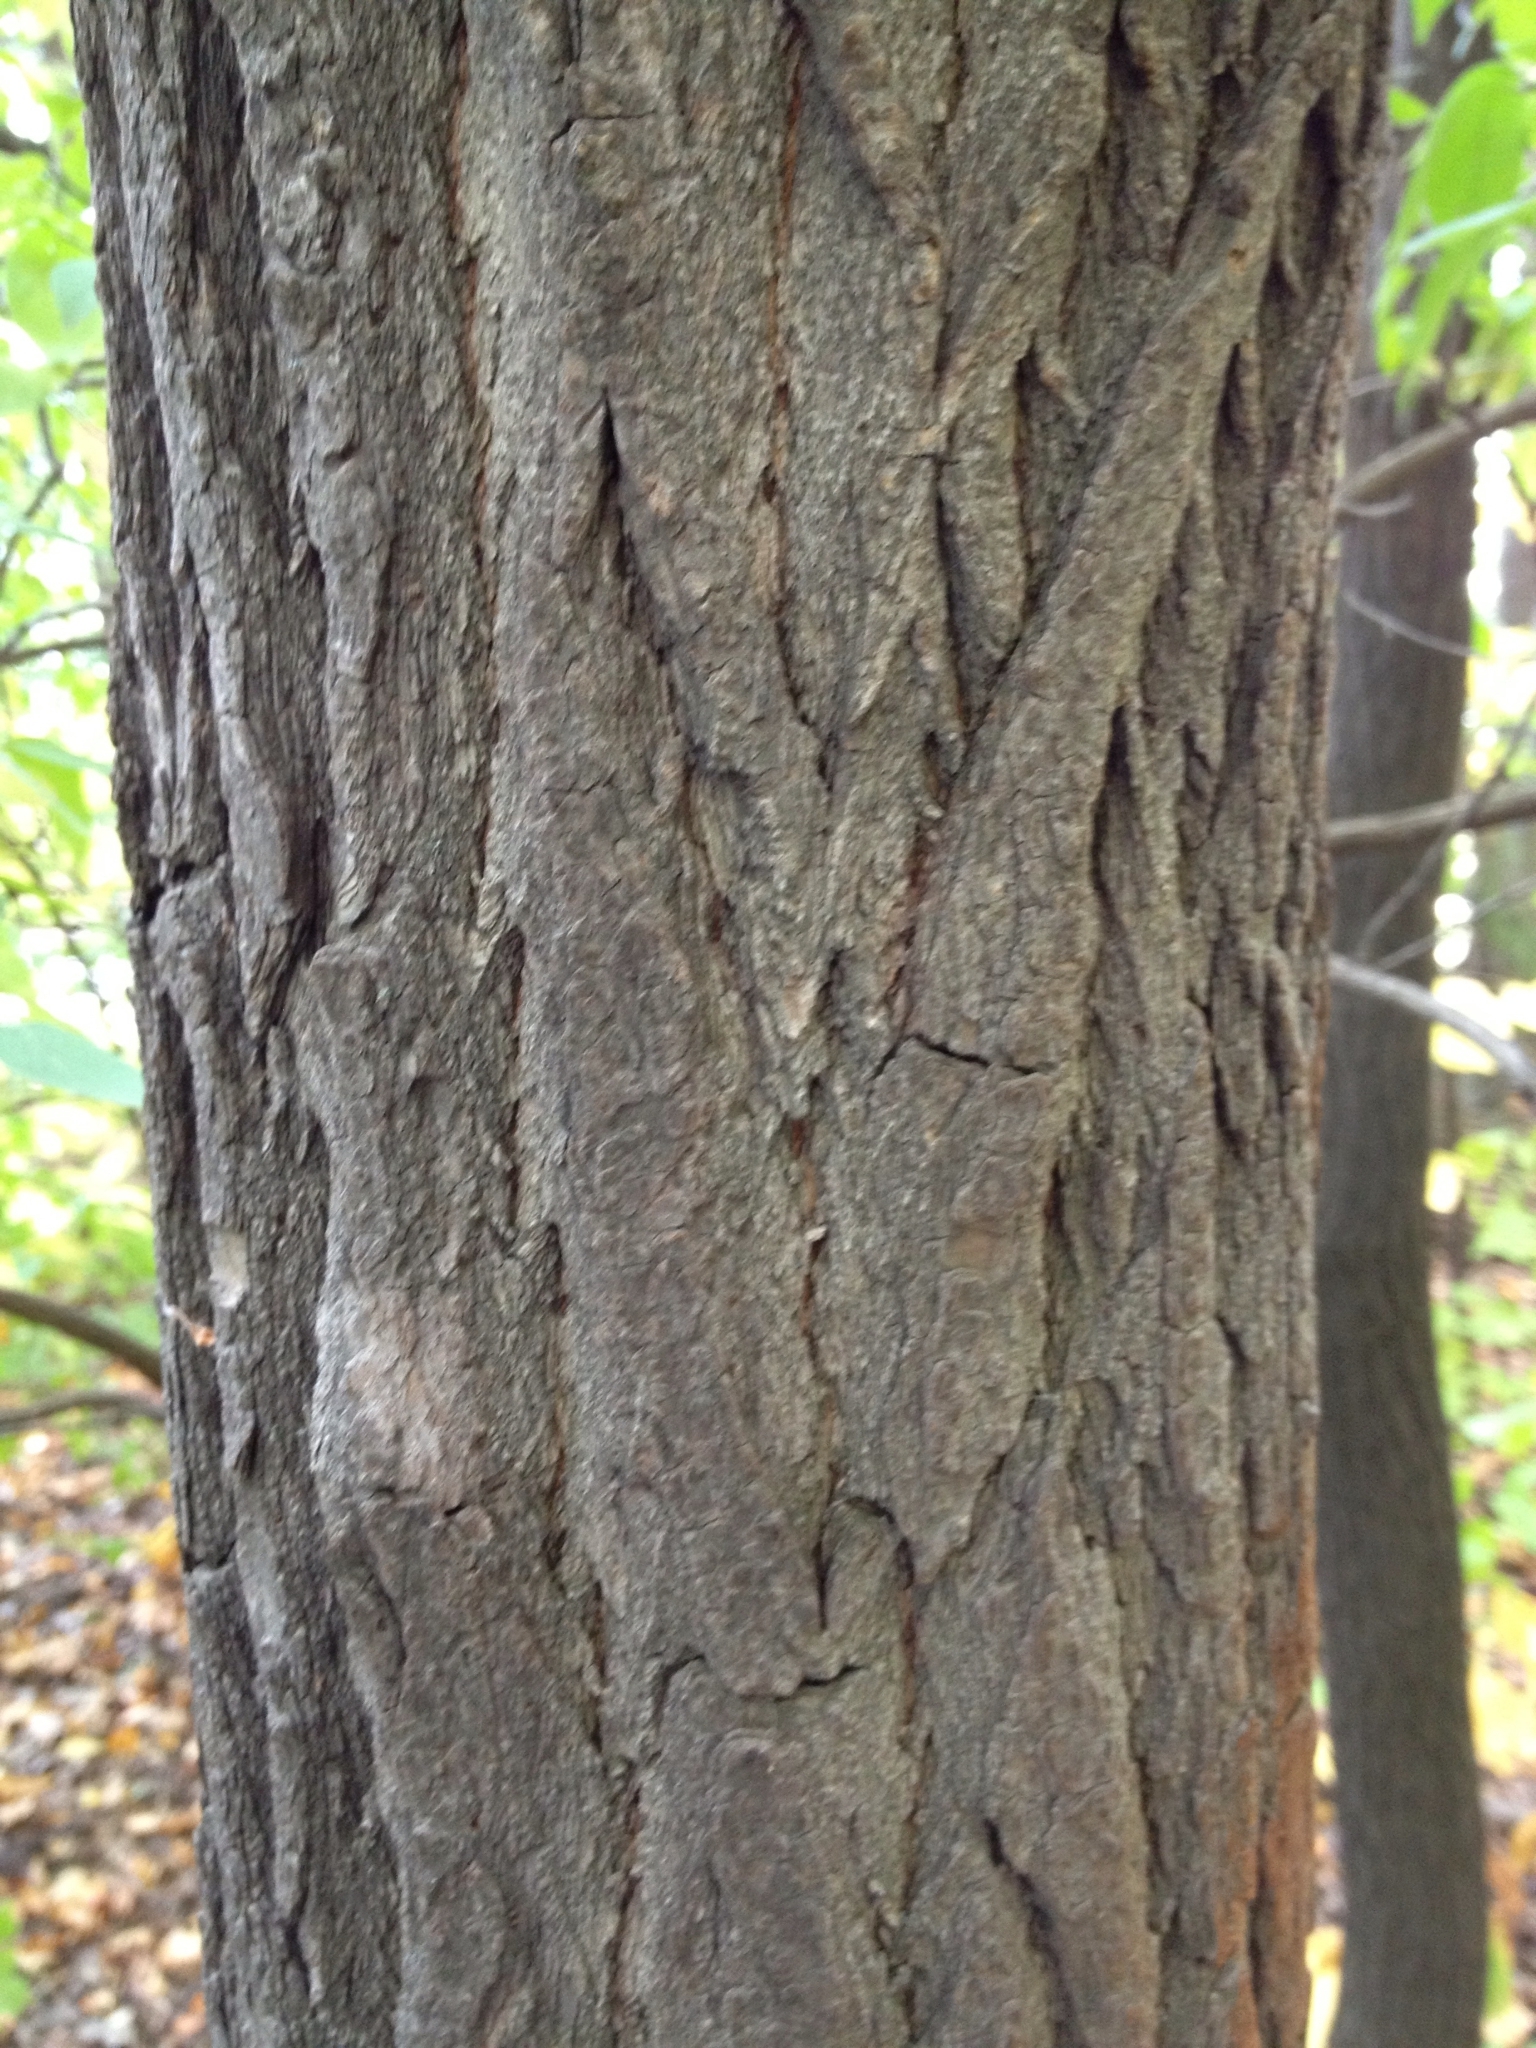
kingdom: Plantae
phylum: Tracheophyta
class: Magnoliopsida
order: Laurales
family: Lauraceae
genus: Sassafras
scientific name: Sassafras albidum
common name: Sassafras
